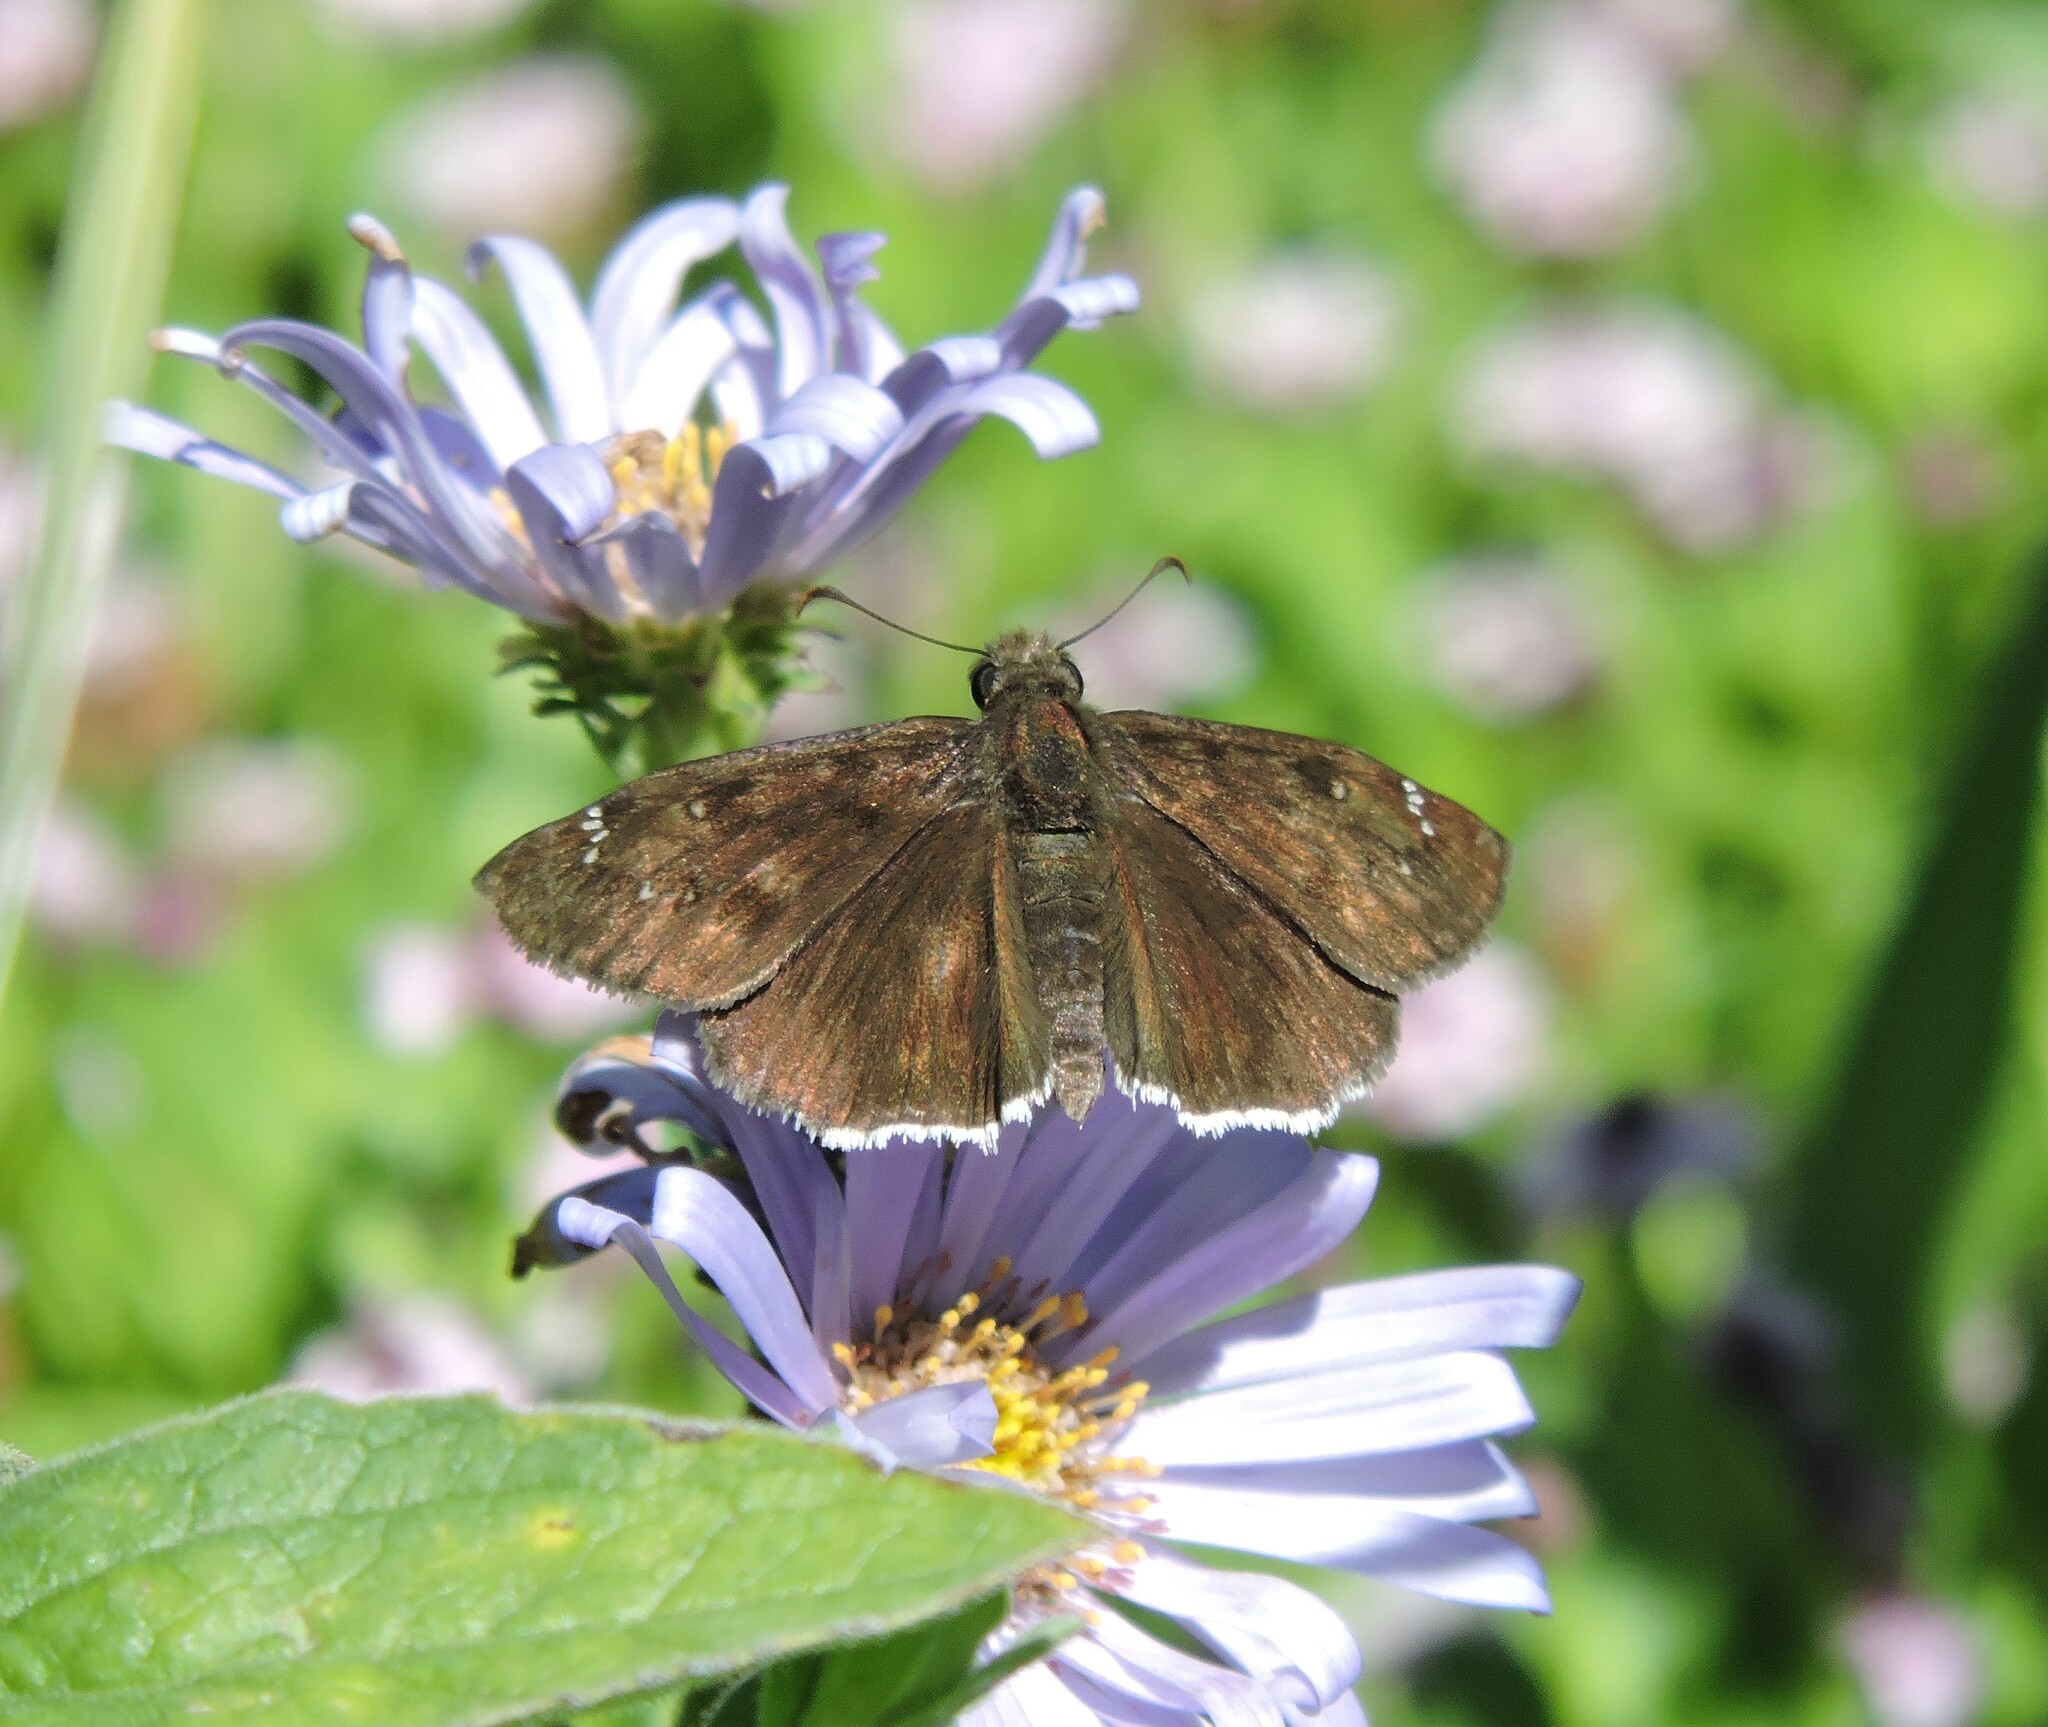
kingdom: Animalia
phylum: Arthropoda
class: Insecta
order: Lepidoptera
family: Hesperiidae
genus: Erynnis
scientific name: Erynnis tristis
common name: Mournful duskywing
